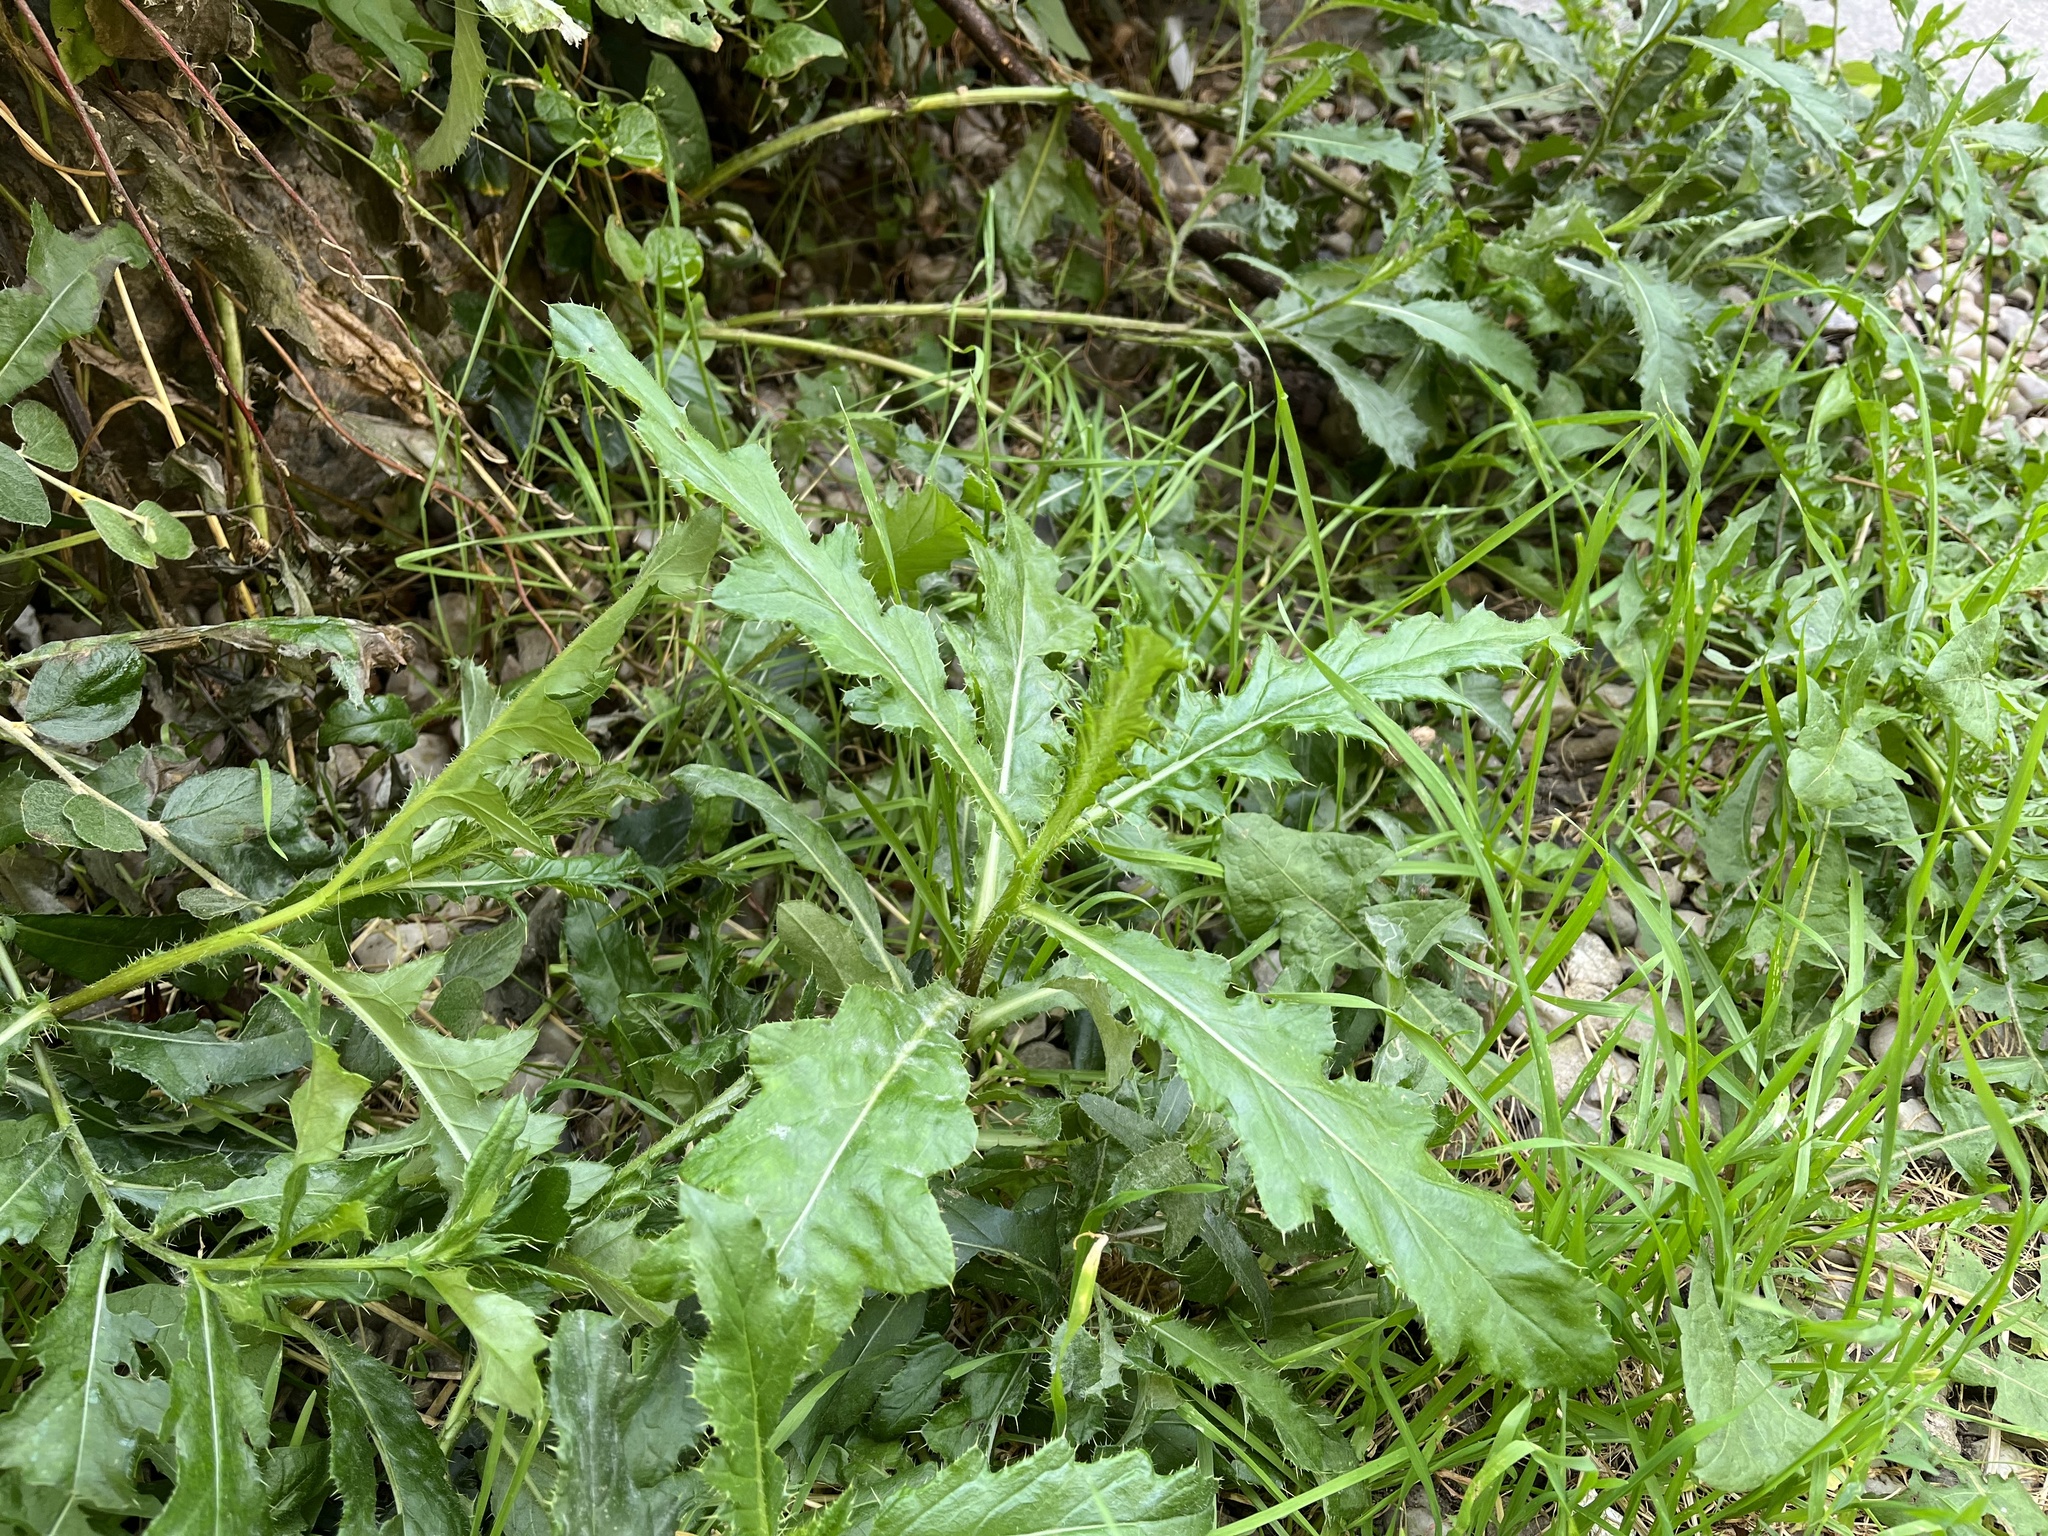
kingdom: Plantae
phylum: Tracheophyta
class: Magnoliopsida
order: Asterales
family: Asteraceae
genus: Cirsium
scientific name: Cirsium arvense
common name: Creeping thistle
